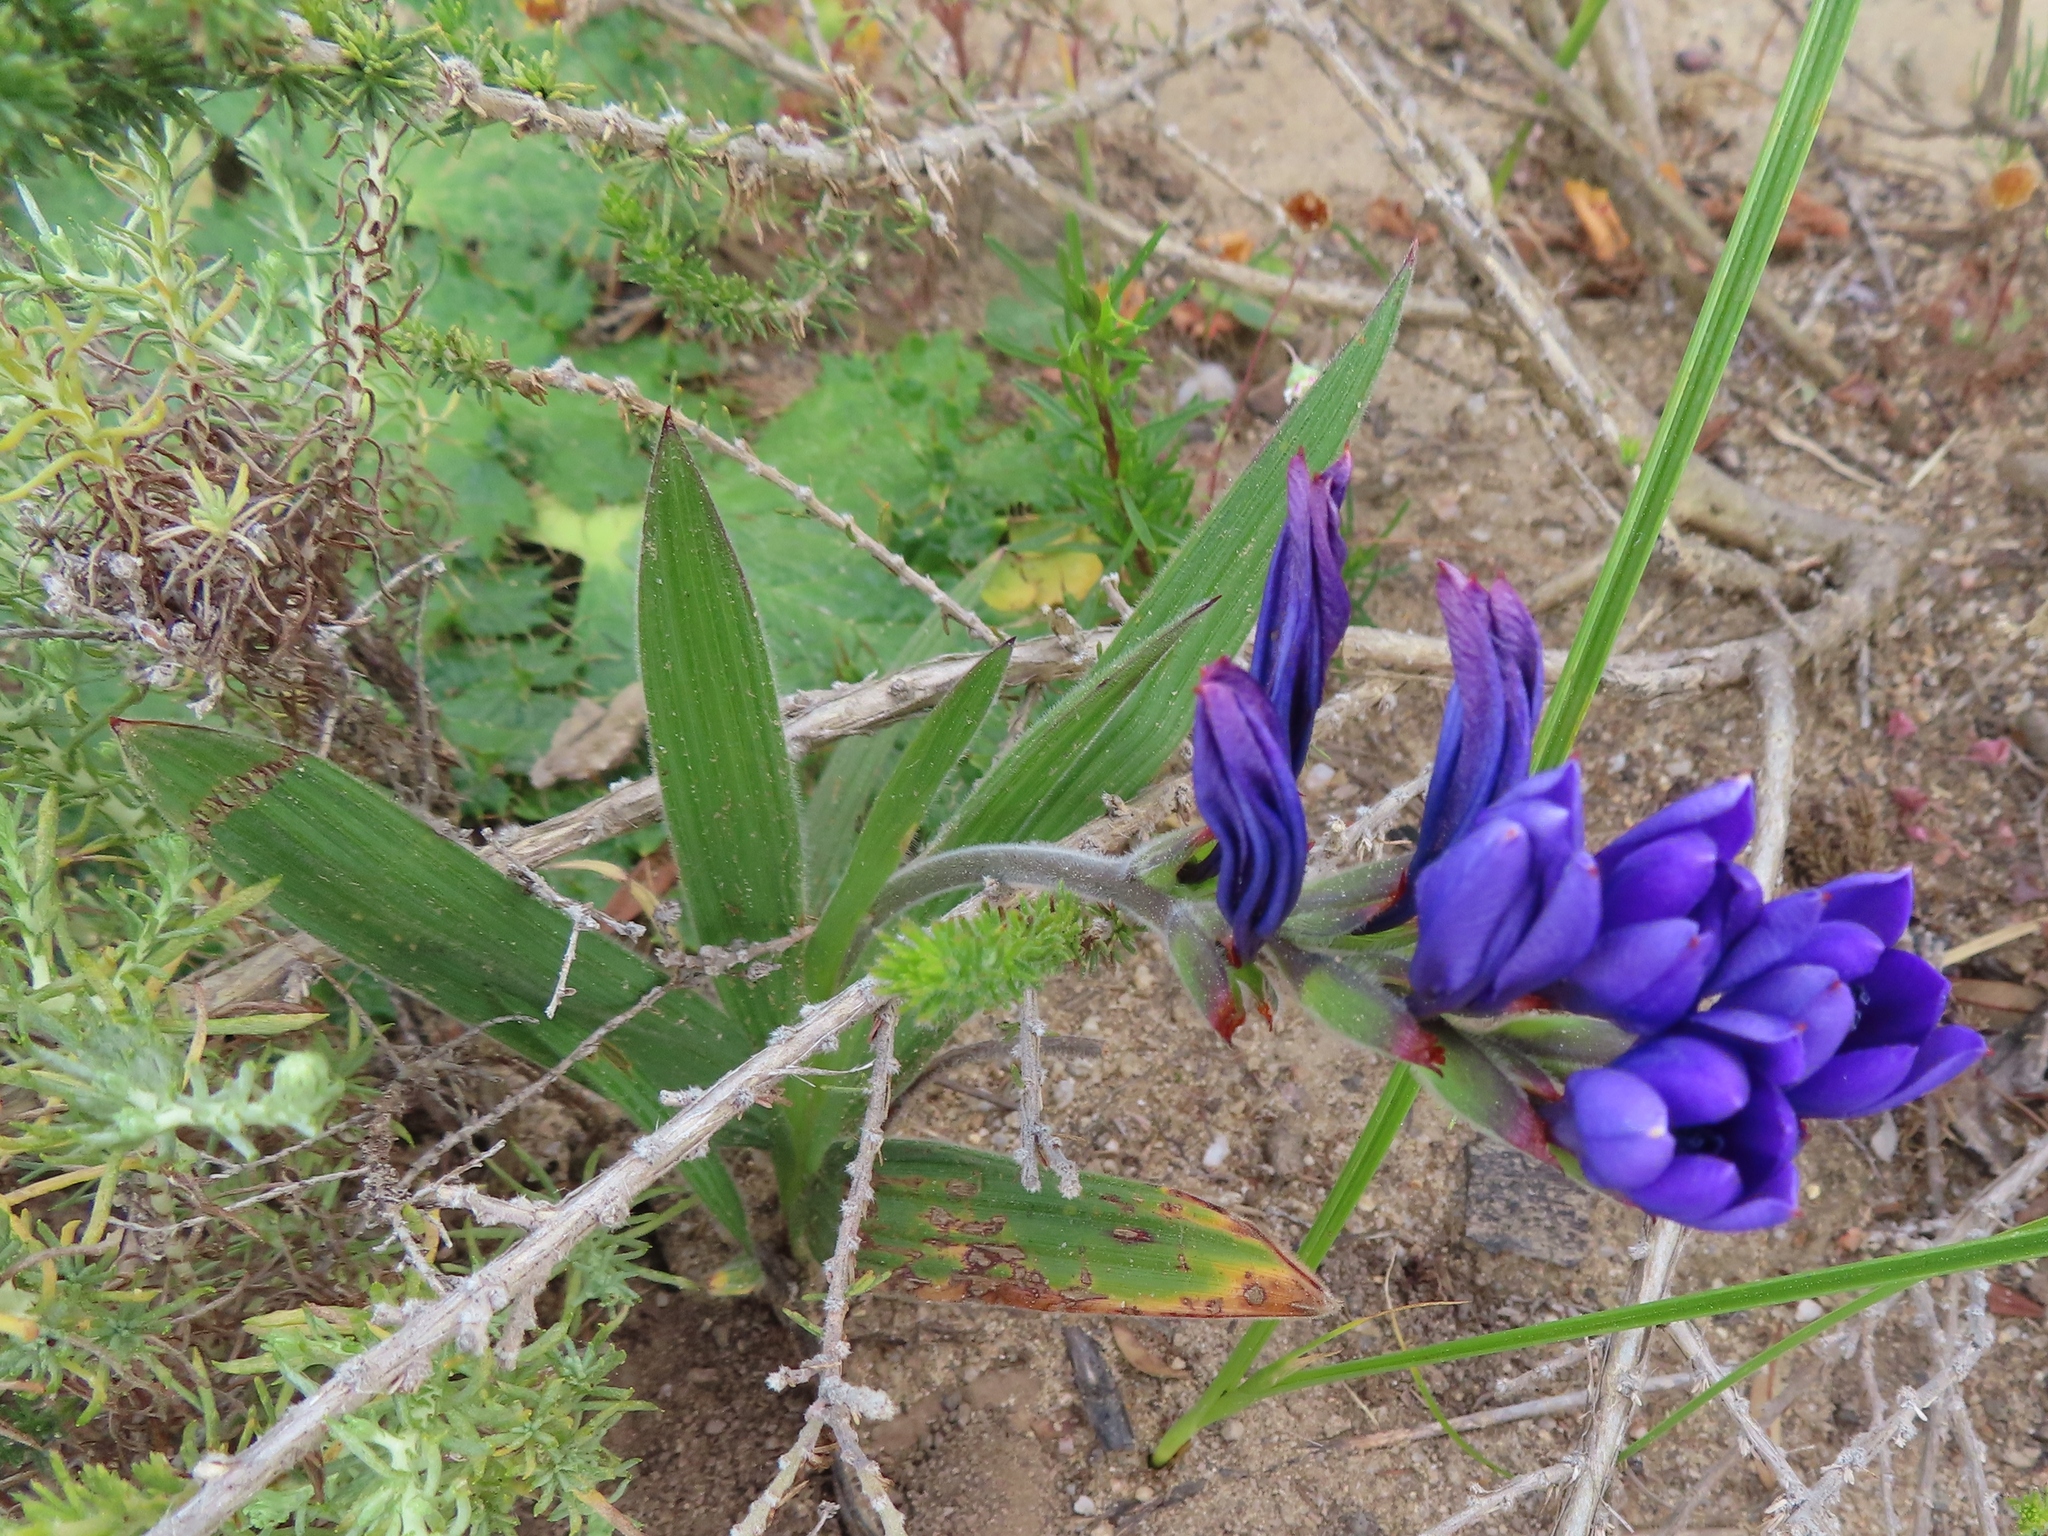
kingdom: Plantae
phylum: Tracheophyta
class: Liliopsida
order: Asparagales
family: Iridaceae
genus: Babiana
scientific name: Babiana angustifolia
